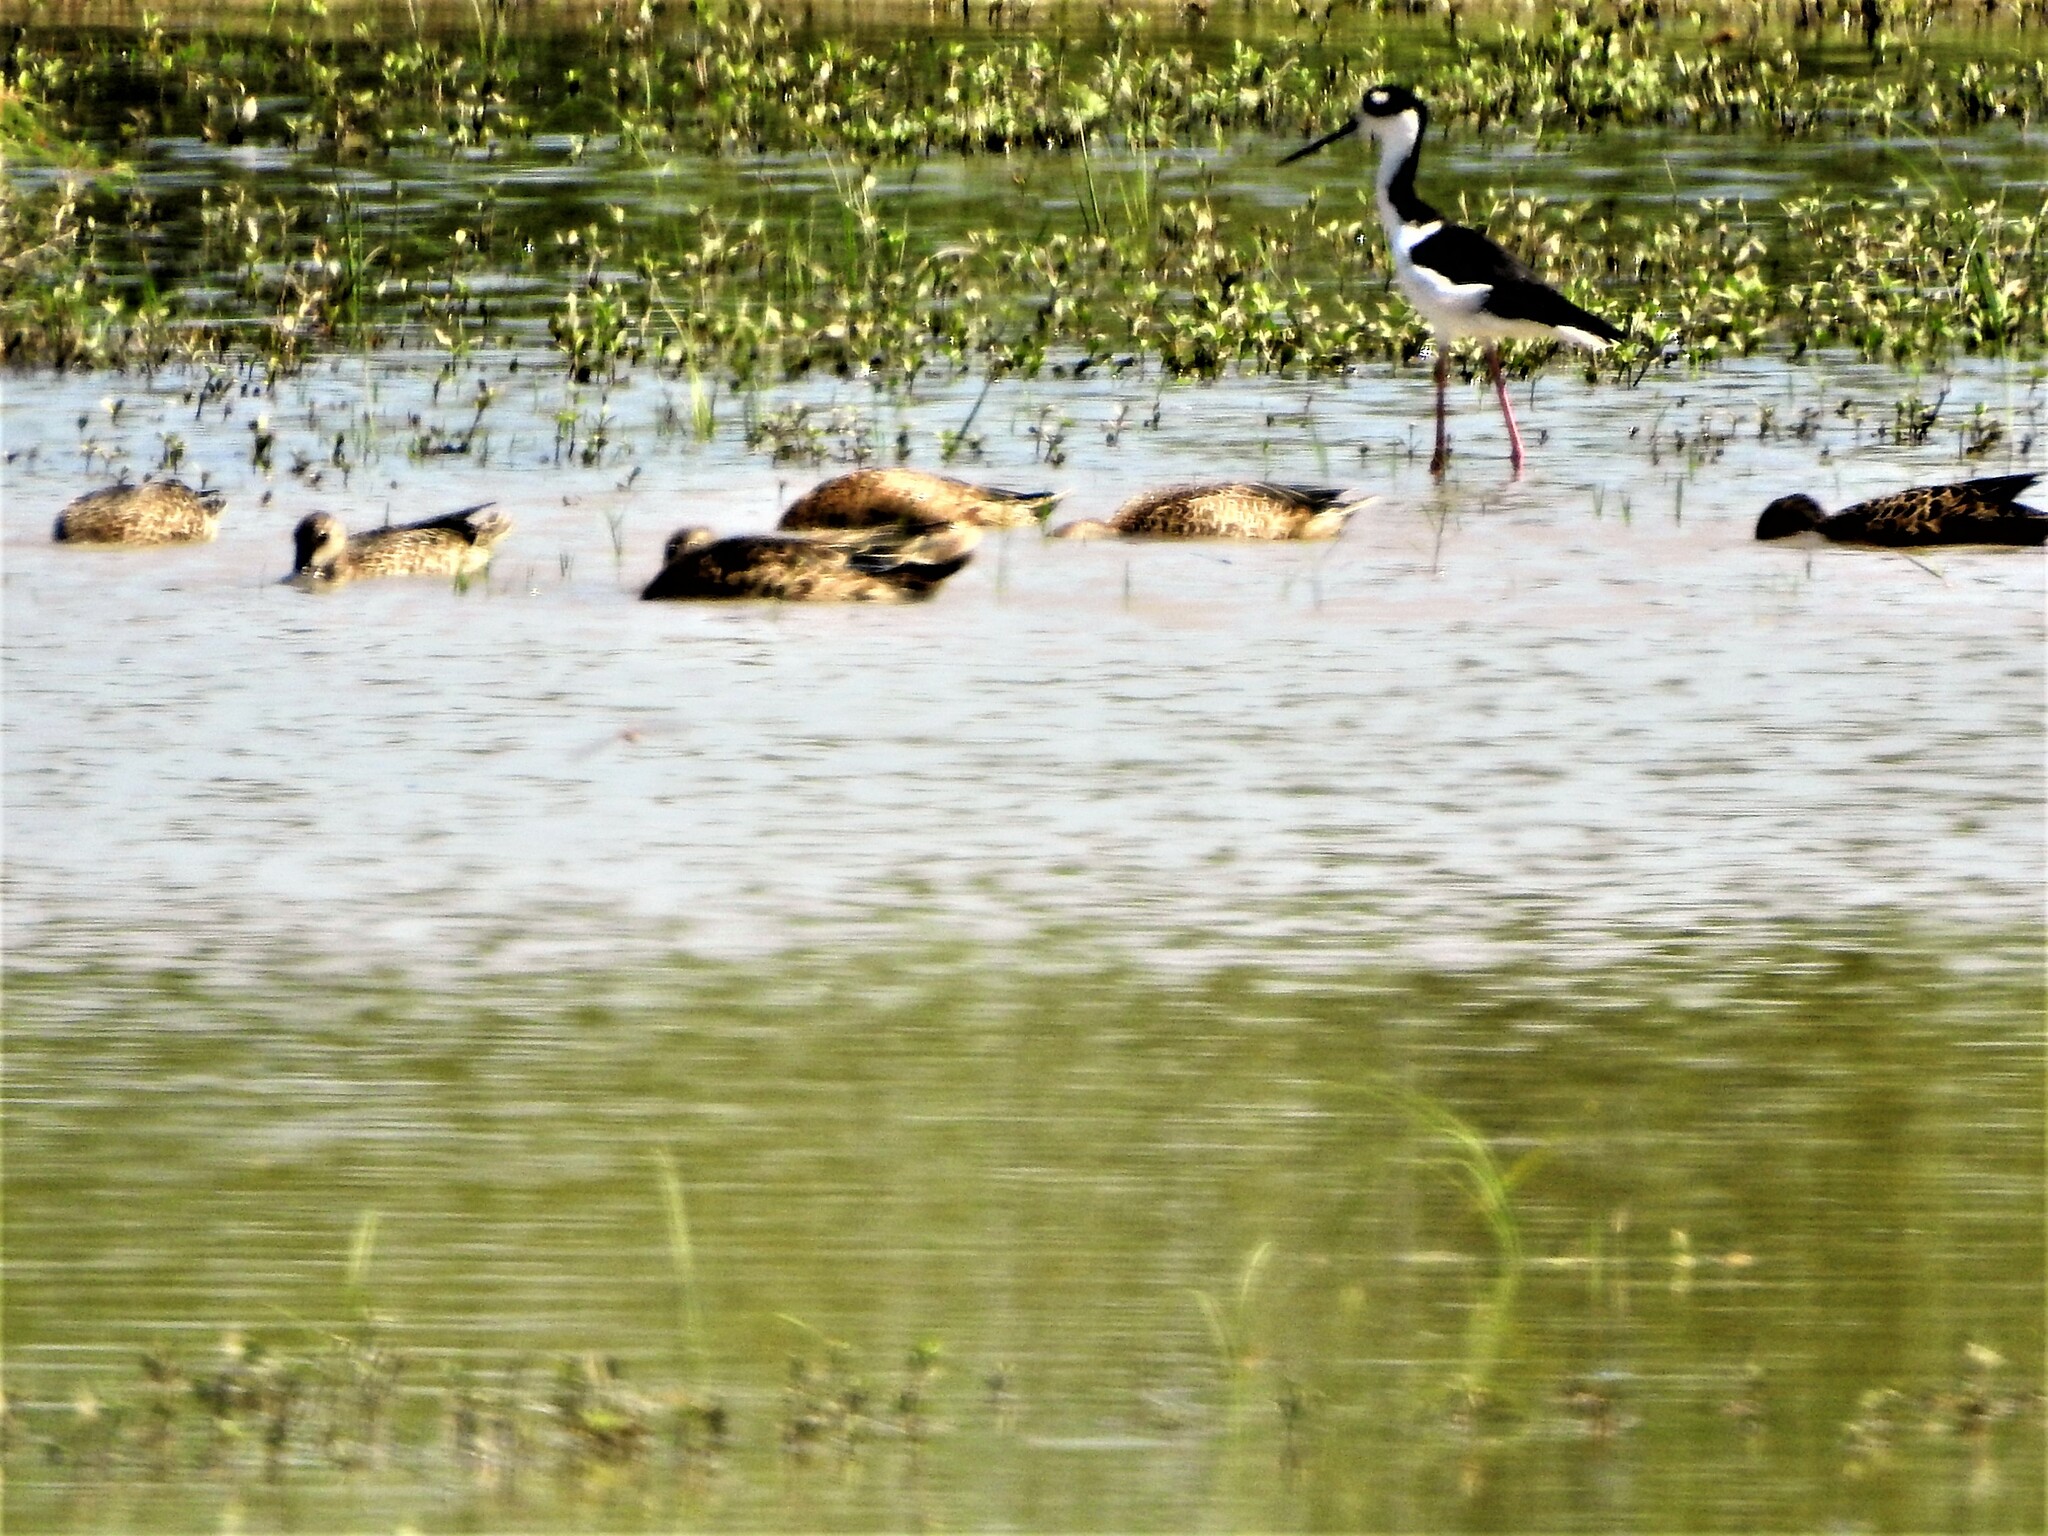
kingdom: Animalia
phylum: Chordata
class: Aves
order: Charadriiformes
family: Recurvirostridae
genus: Himantopus
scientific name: Himantopus mexicanus
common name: Black-necked stilt
